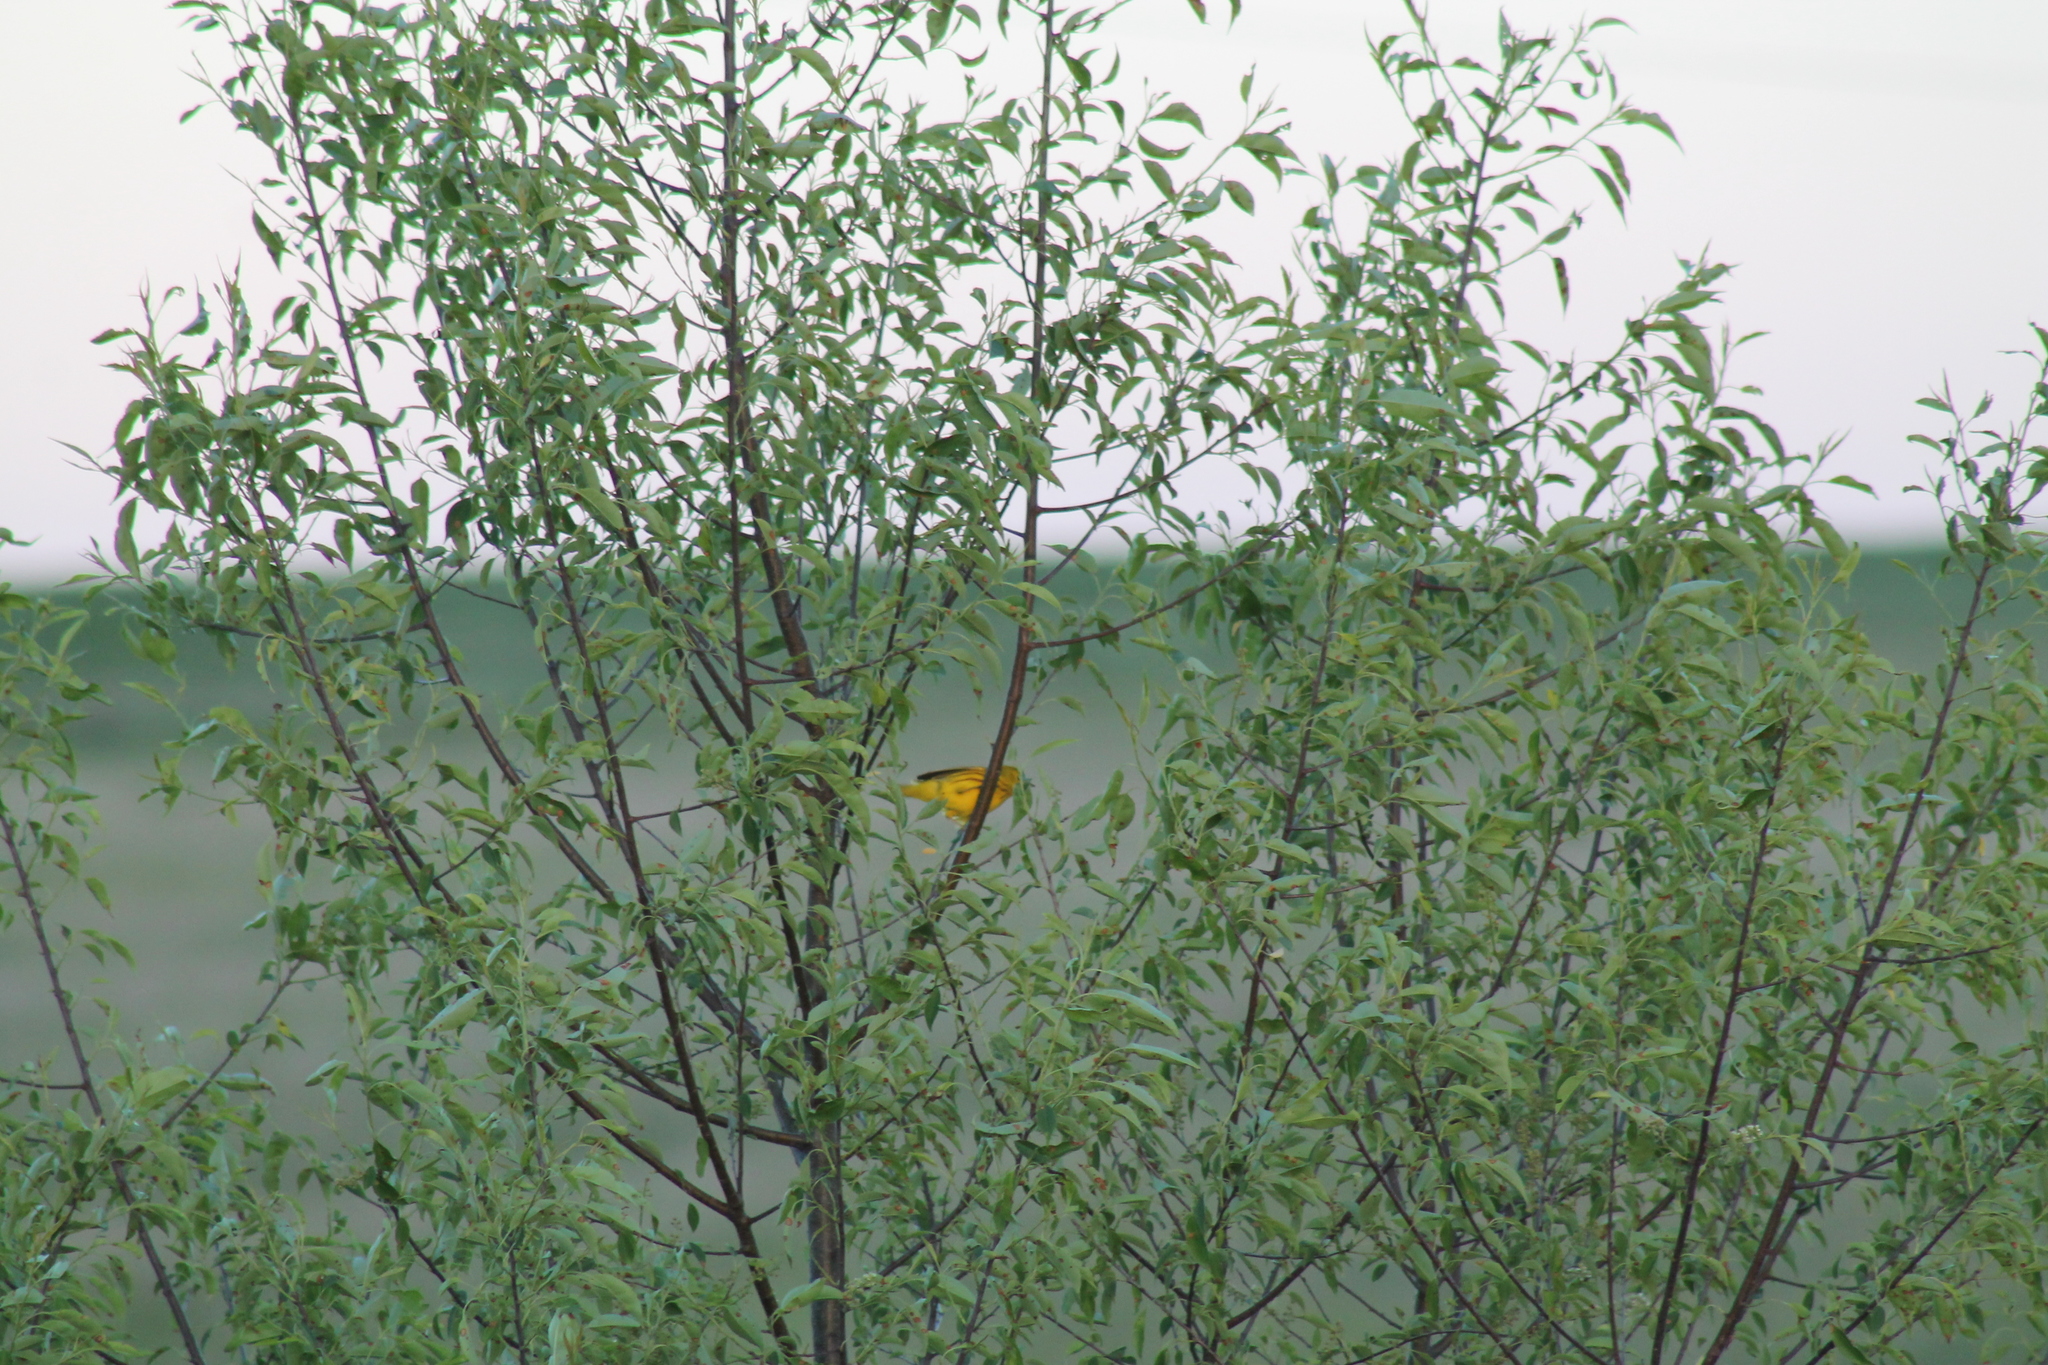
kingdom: Animalia
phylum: Chordata
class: Aves
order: Passeriformes
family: Parulidae
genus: Setophaga
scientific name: Setophaga petechia
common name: Yellow warbler
